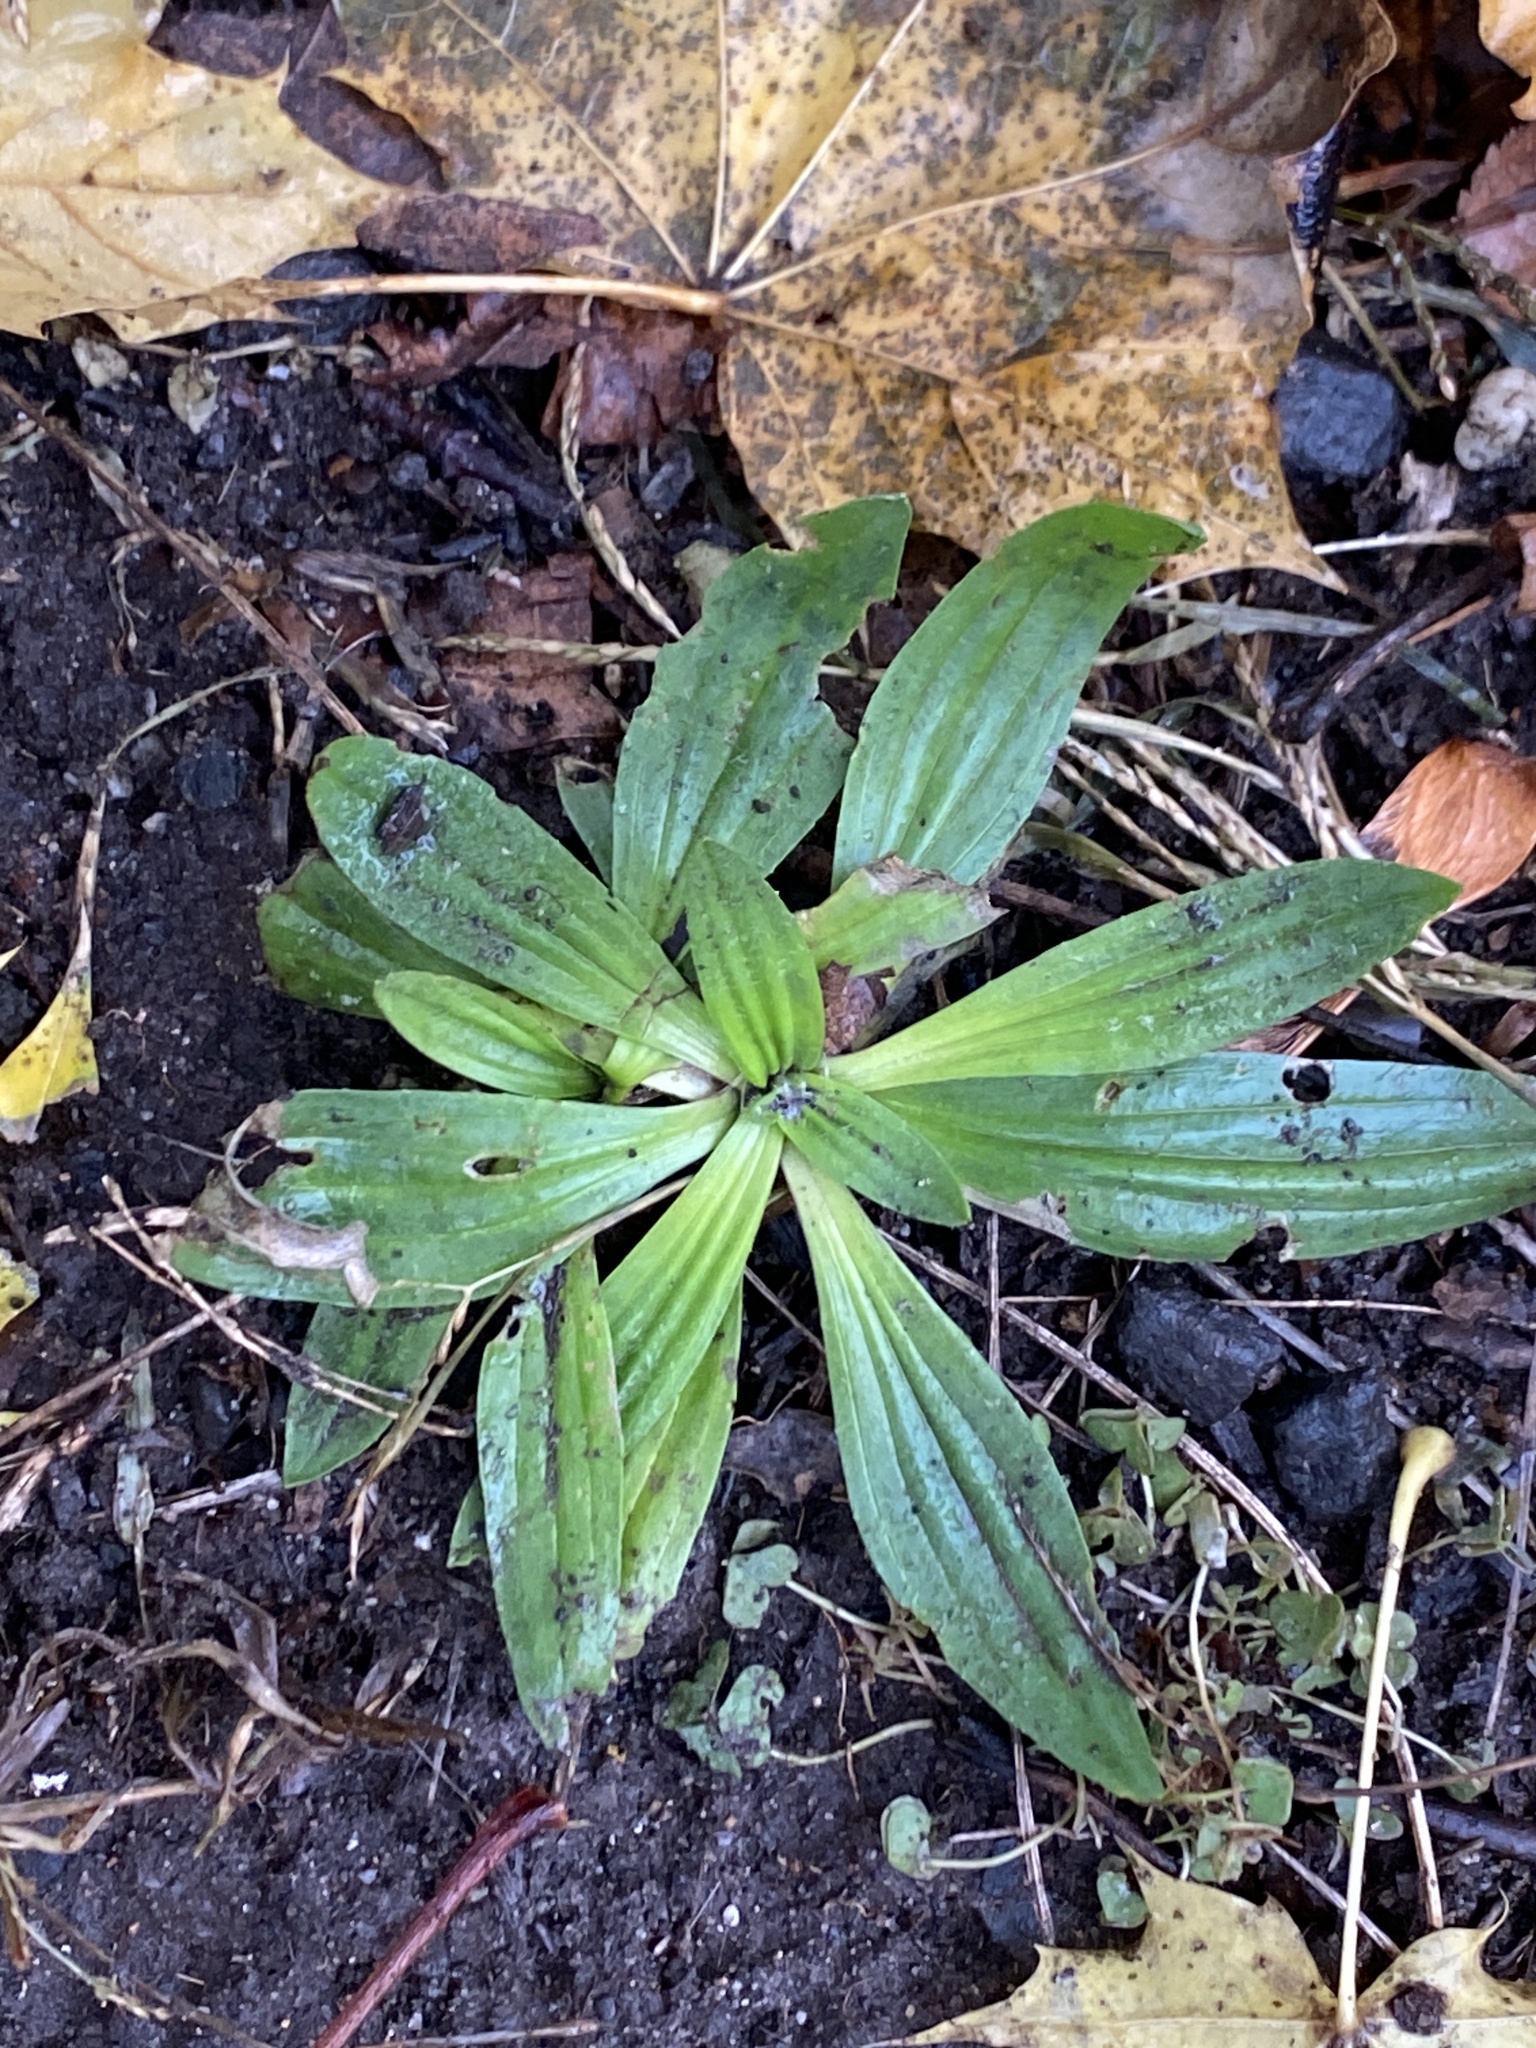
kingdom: Plantae
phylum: Tracheophyta
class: Magnoliopsida
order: Lamiales
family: Plantaginaceae
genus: Plantago
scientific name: Plantago lanceolata
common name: Ribwort plantain
